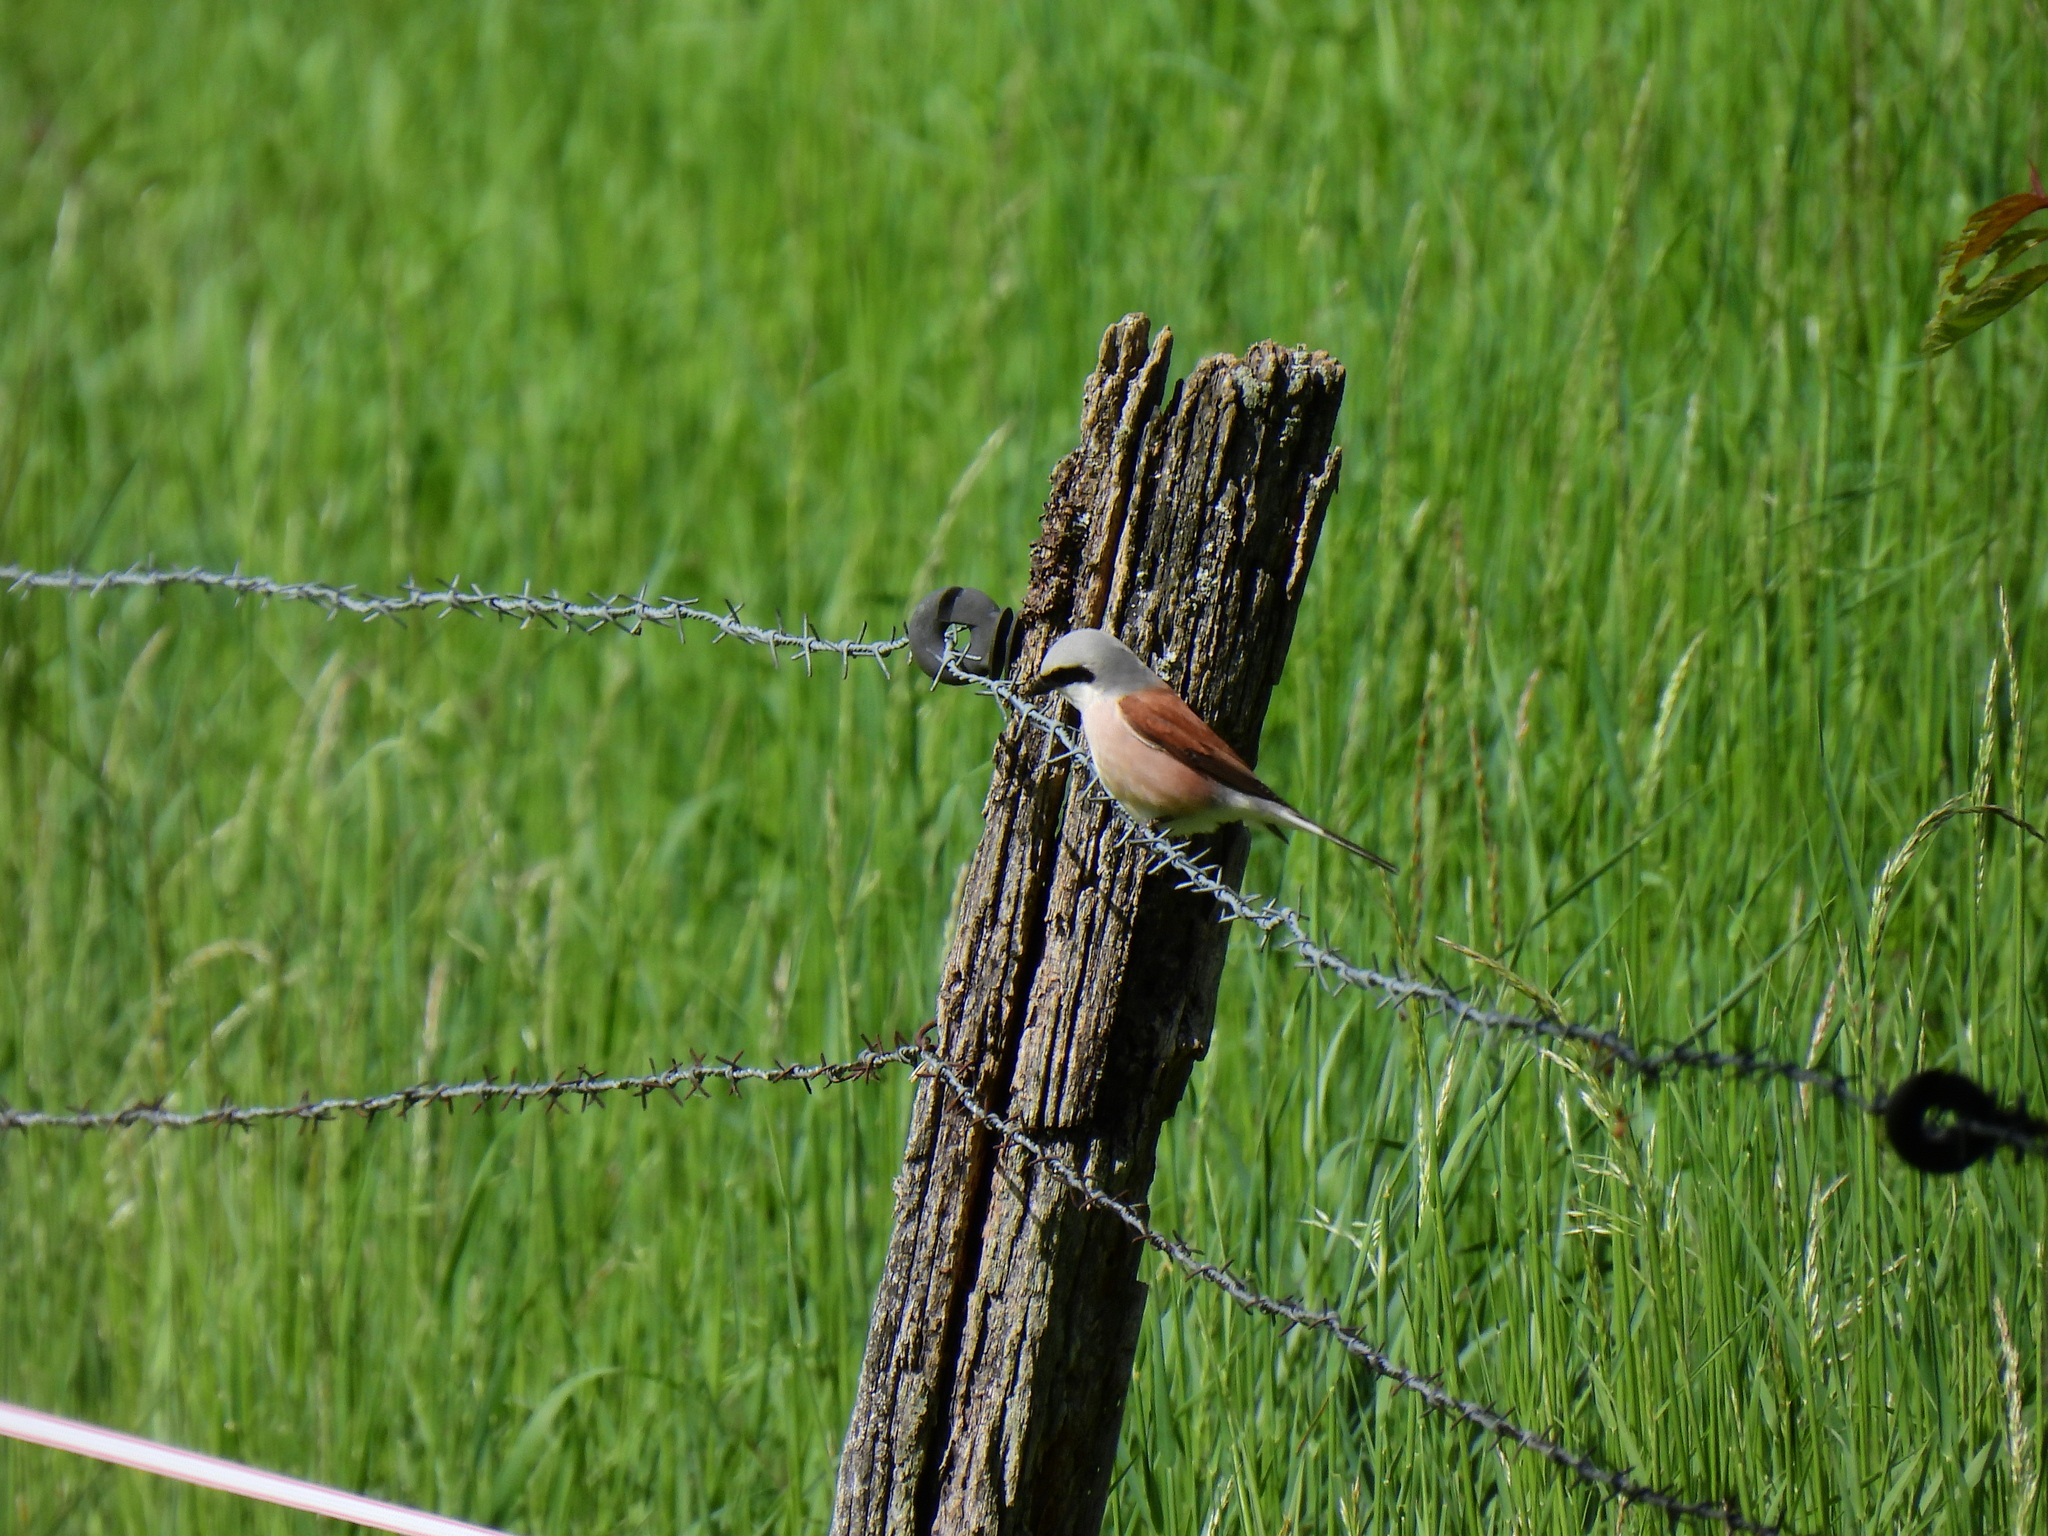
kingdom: Animalia
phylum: Chordata
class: Aves
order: Passeriformes
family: Laniidae
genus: Lanius
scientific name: Lanius collurio
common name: Red-backed shrike
